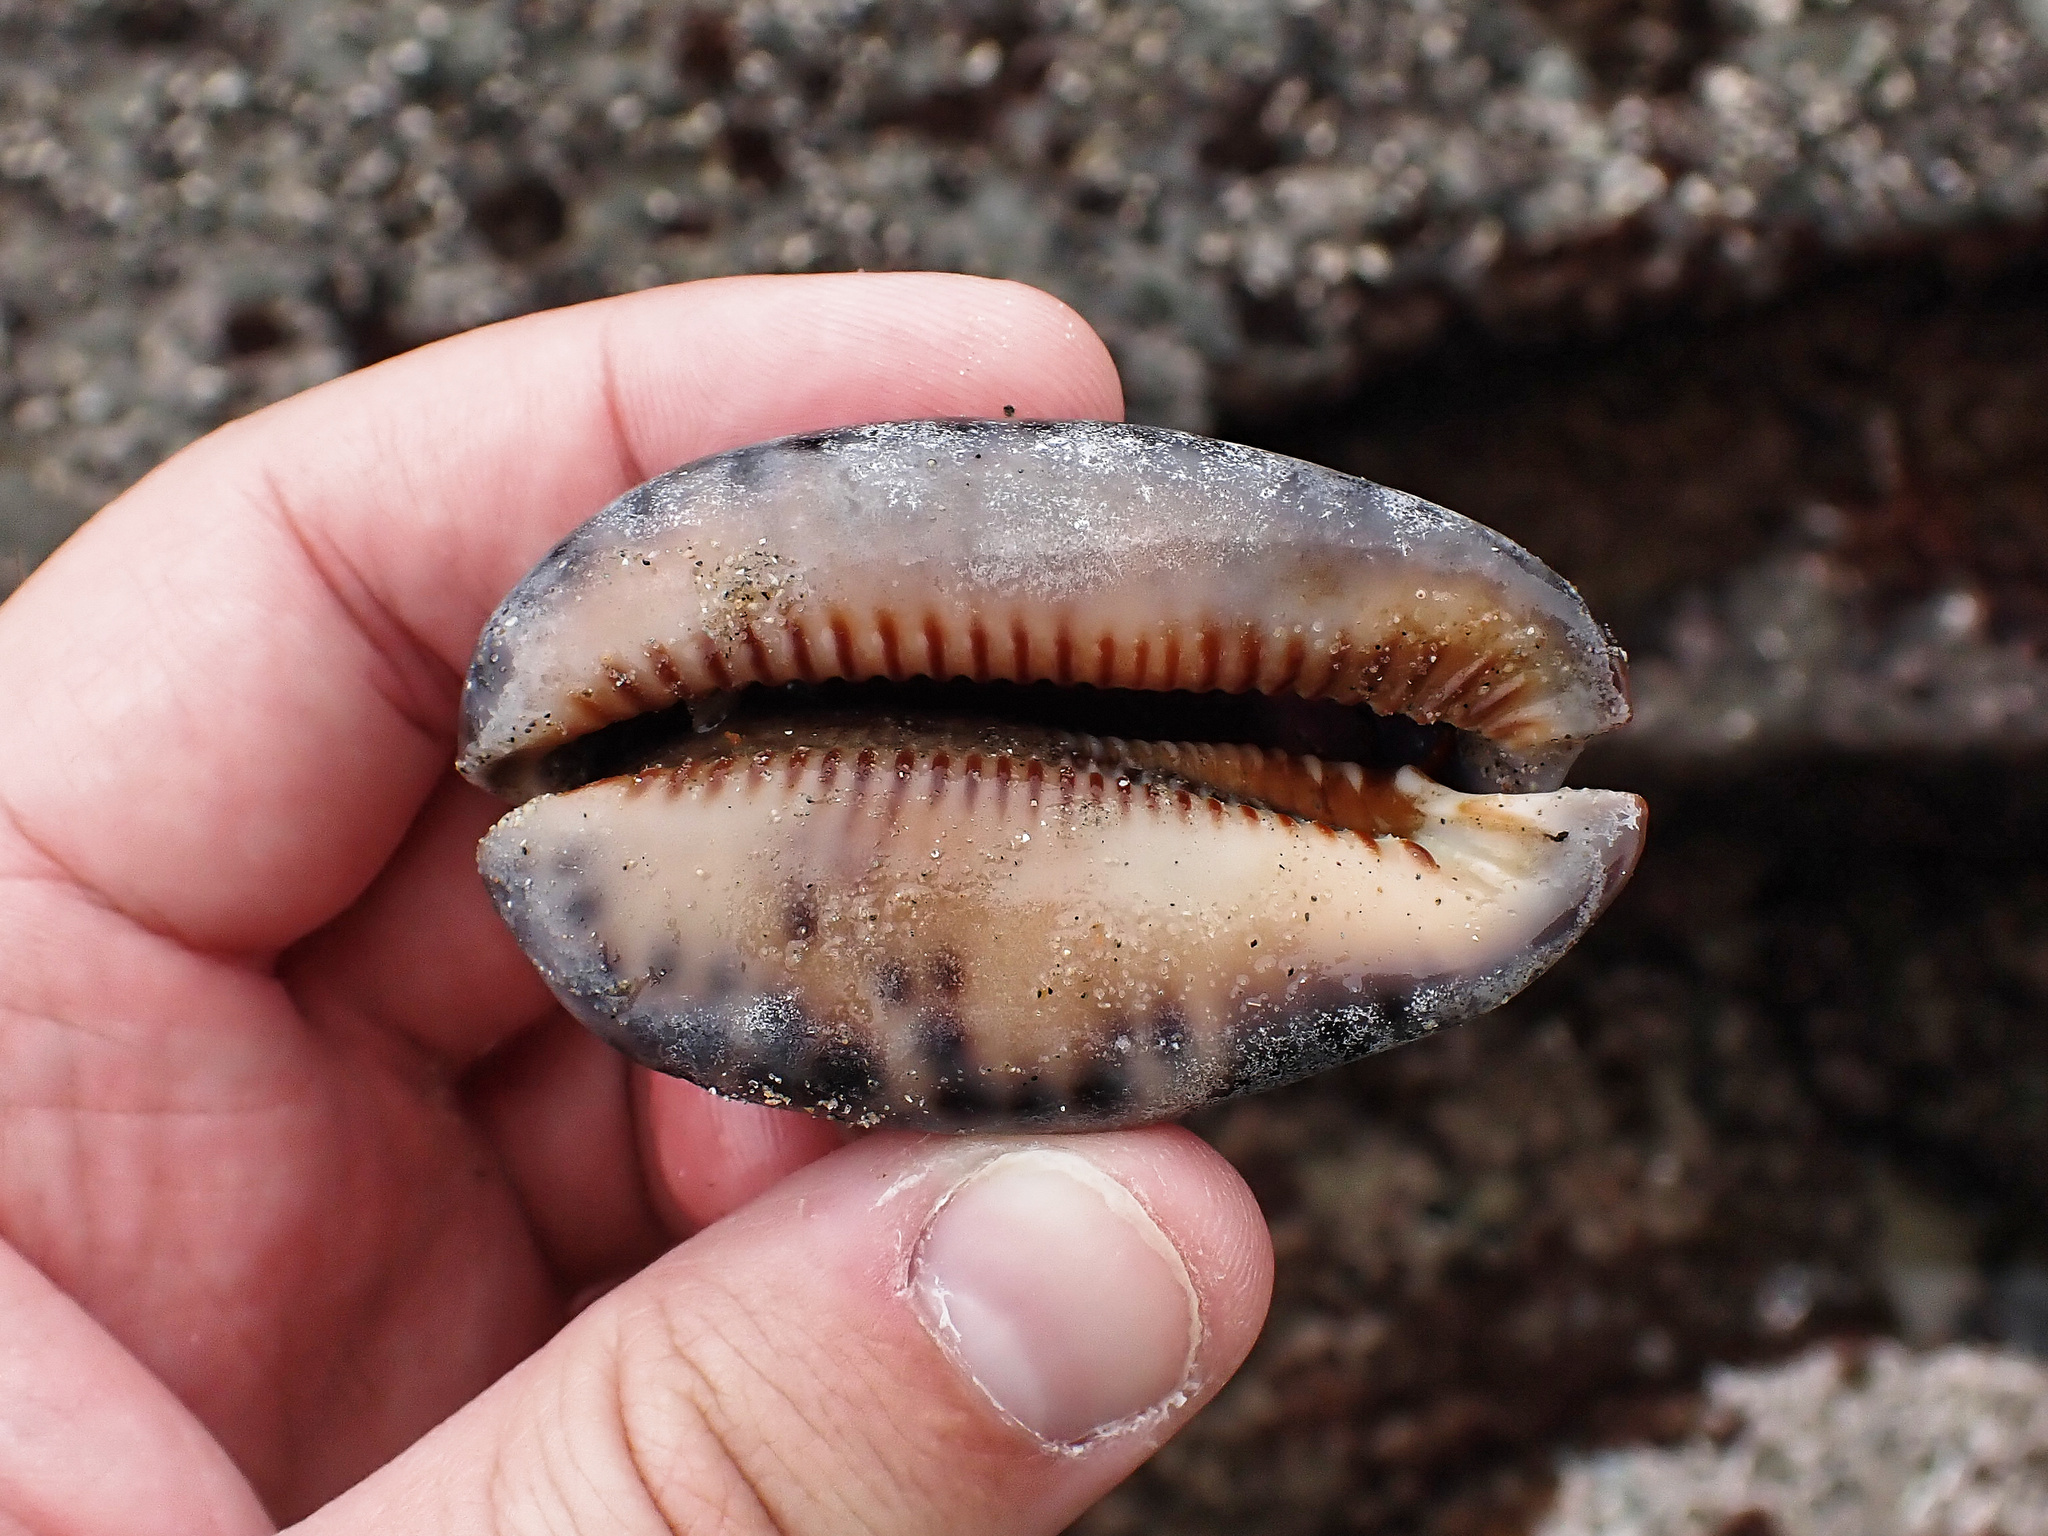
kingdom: Animalia
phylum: Mollusca
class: Gastropoda
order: Littorinimorpha
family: Cypraeidae
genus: Mauritia
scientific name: Mauritia arabica
